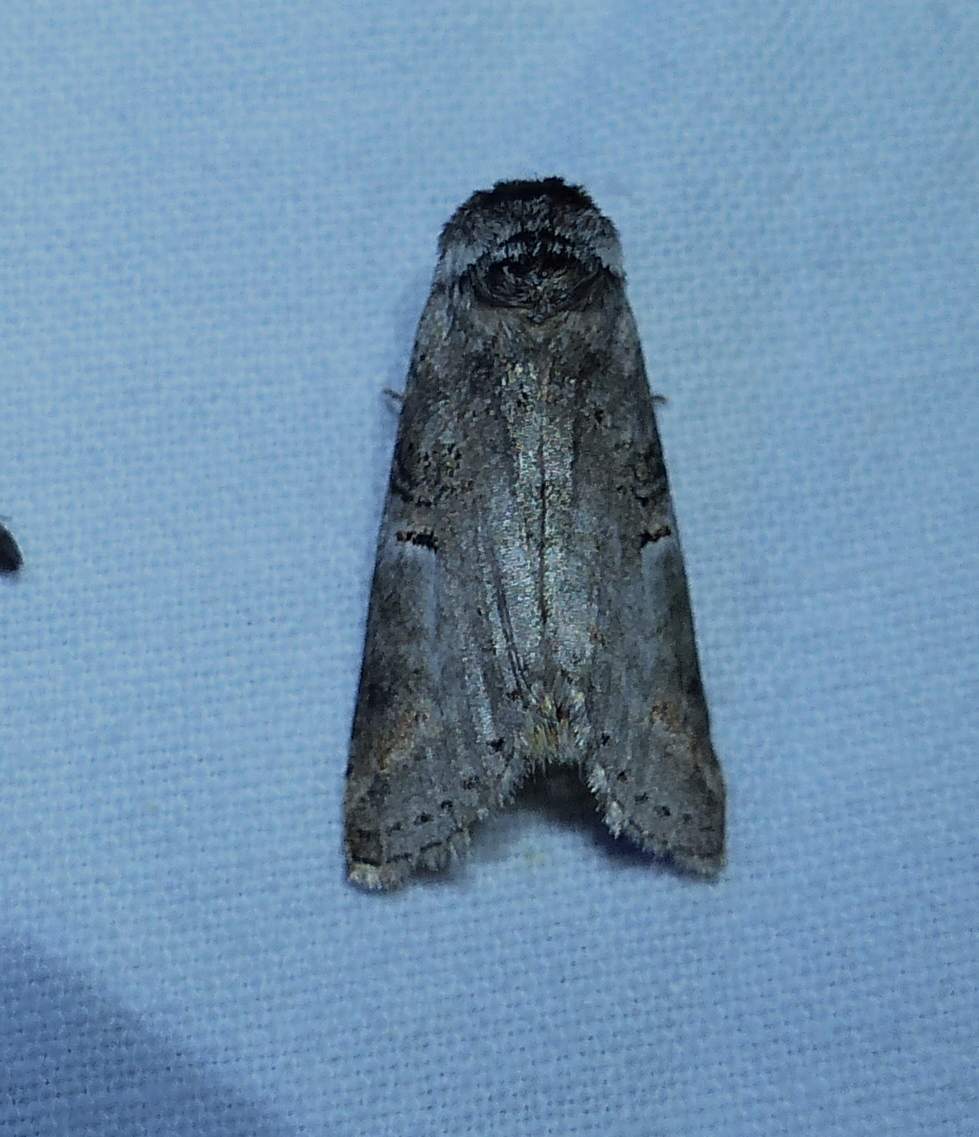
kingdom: Animalia
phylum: Arthropoda
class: Insecta
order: Lepidoptera
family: Notodontidae
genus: Ellida
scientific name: Ellida caniplaga
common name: Linden prominent
